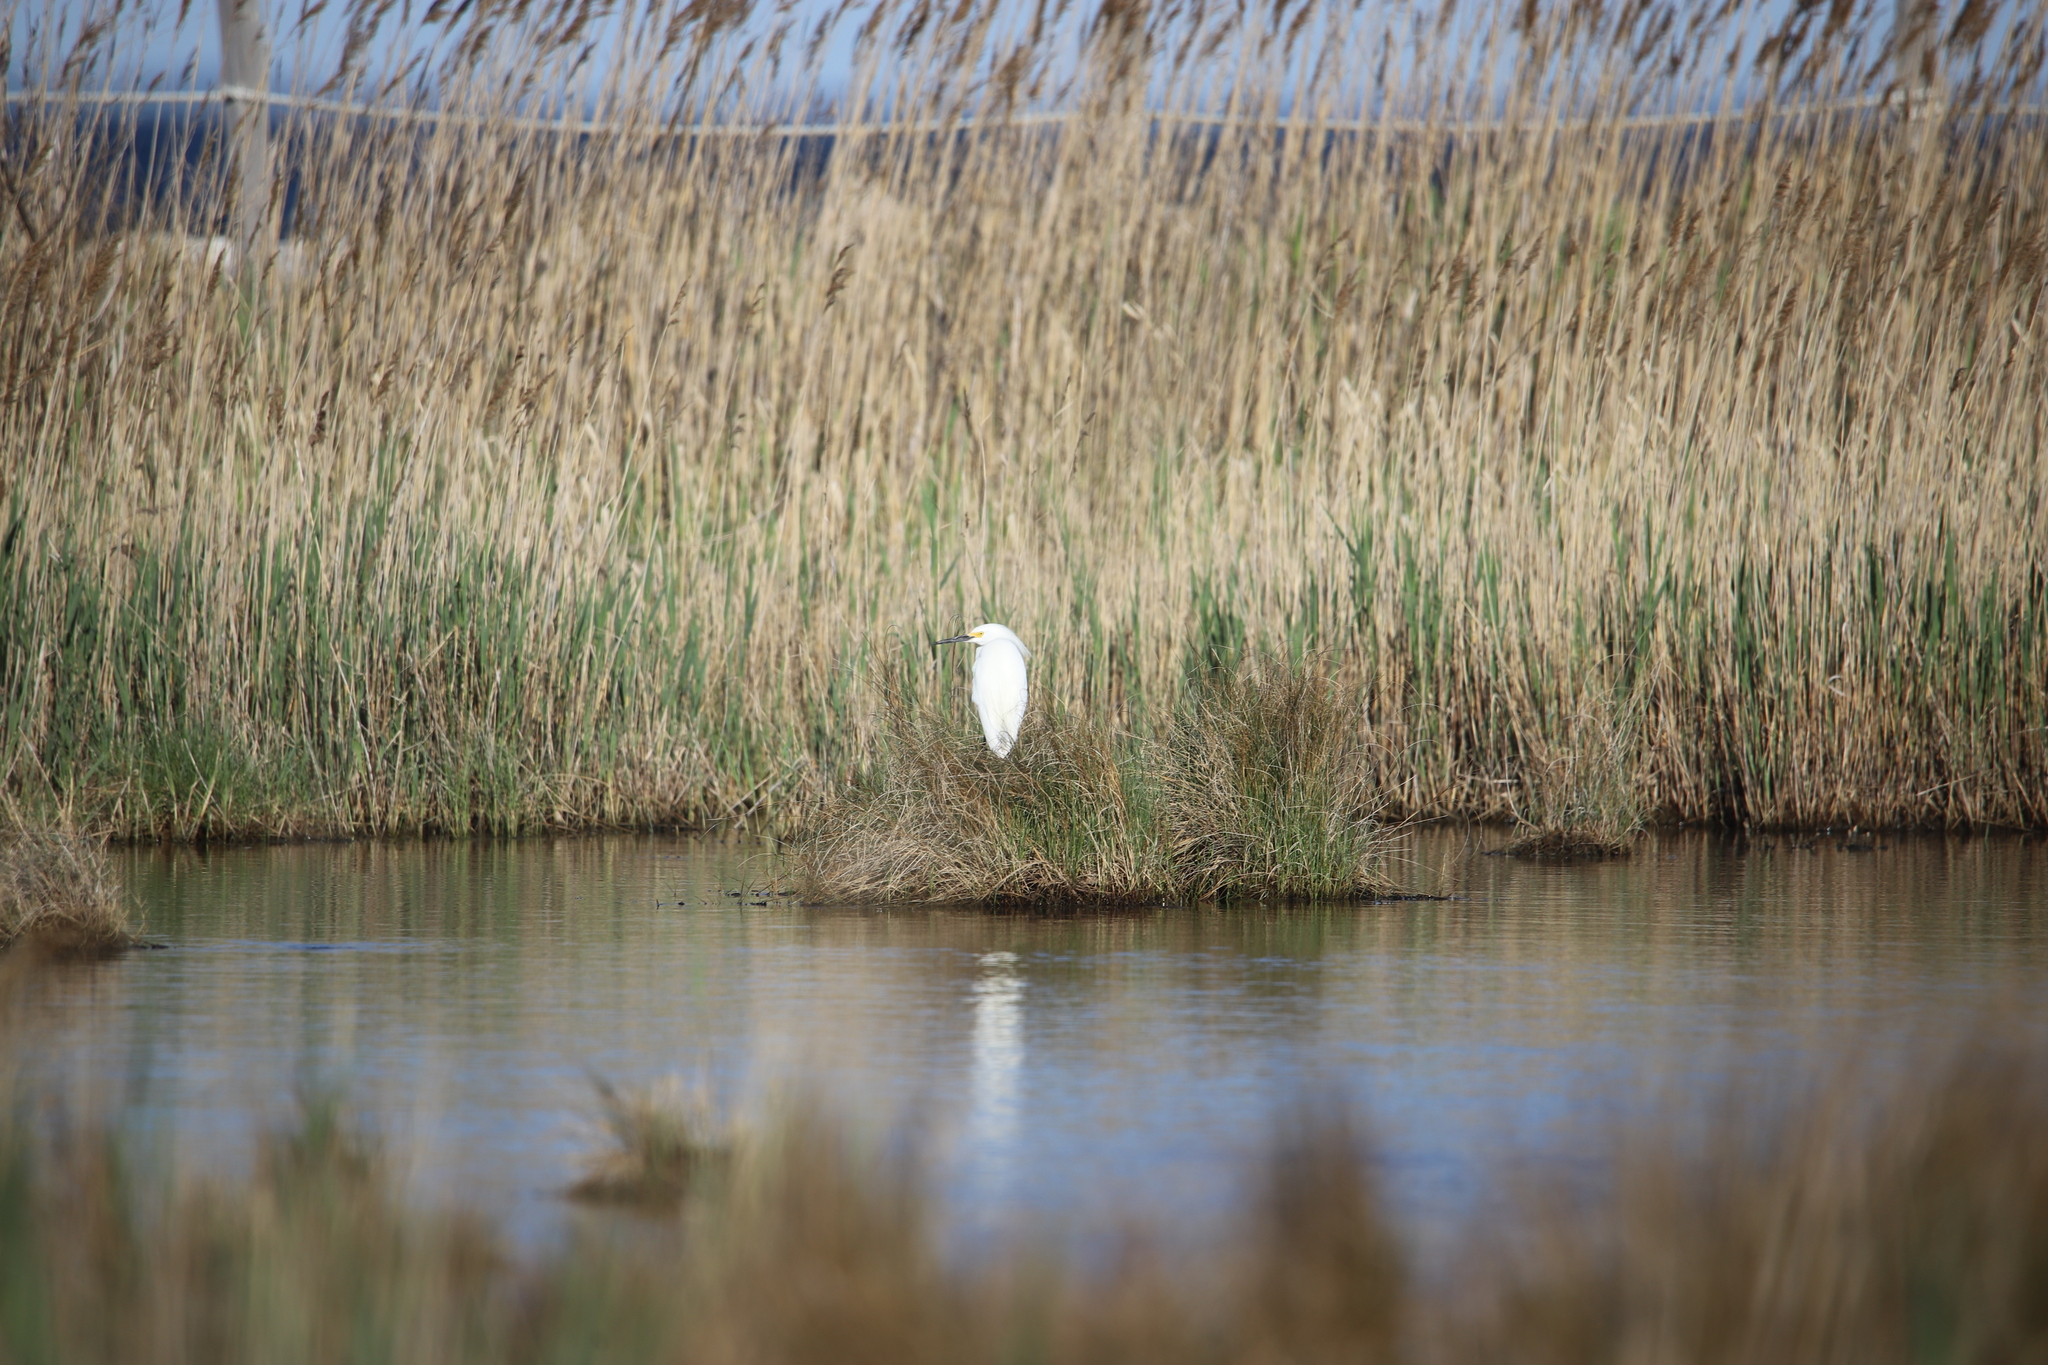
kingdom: Animalia
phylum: Chordata
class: Aves
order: Pelecaniformes
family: Ardeidae
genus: Egretta
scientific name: Egretta thula
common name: Snowy egret
